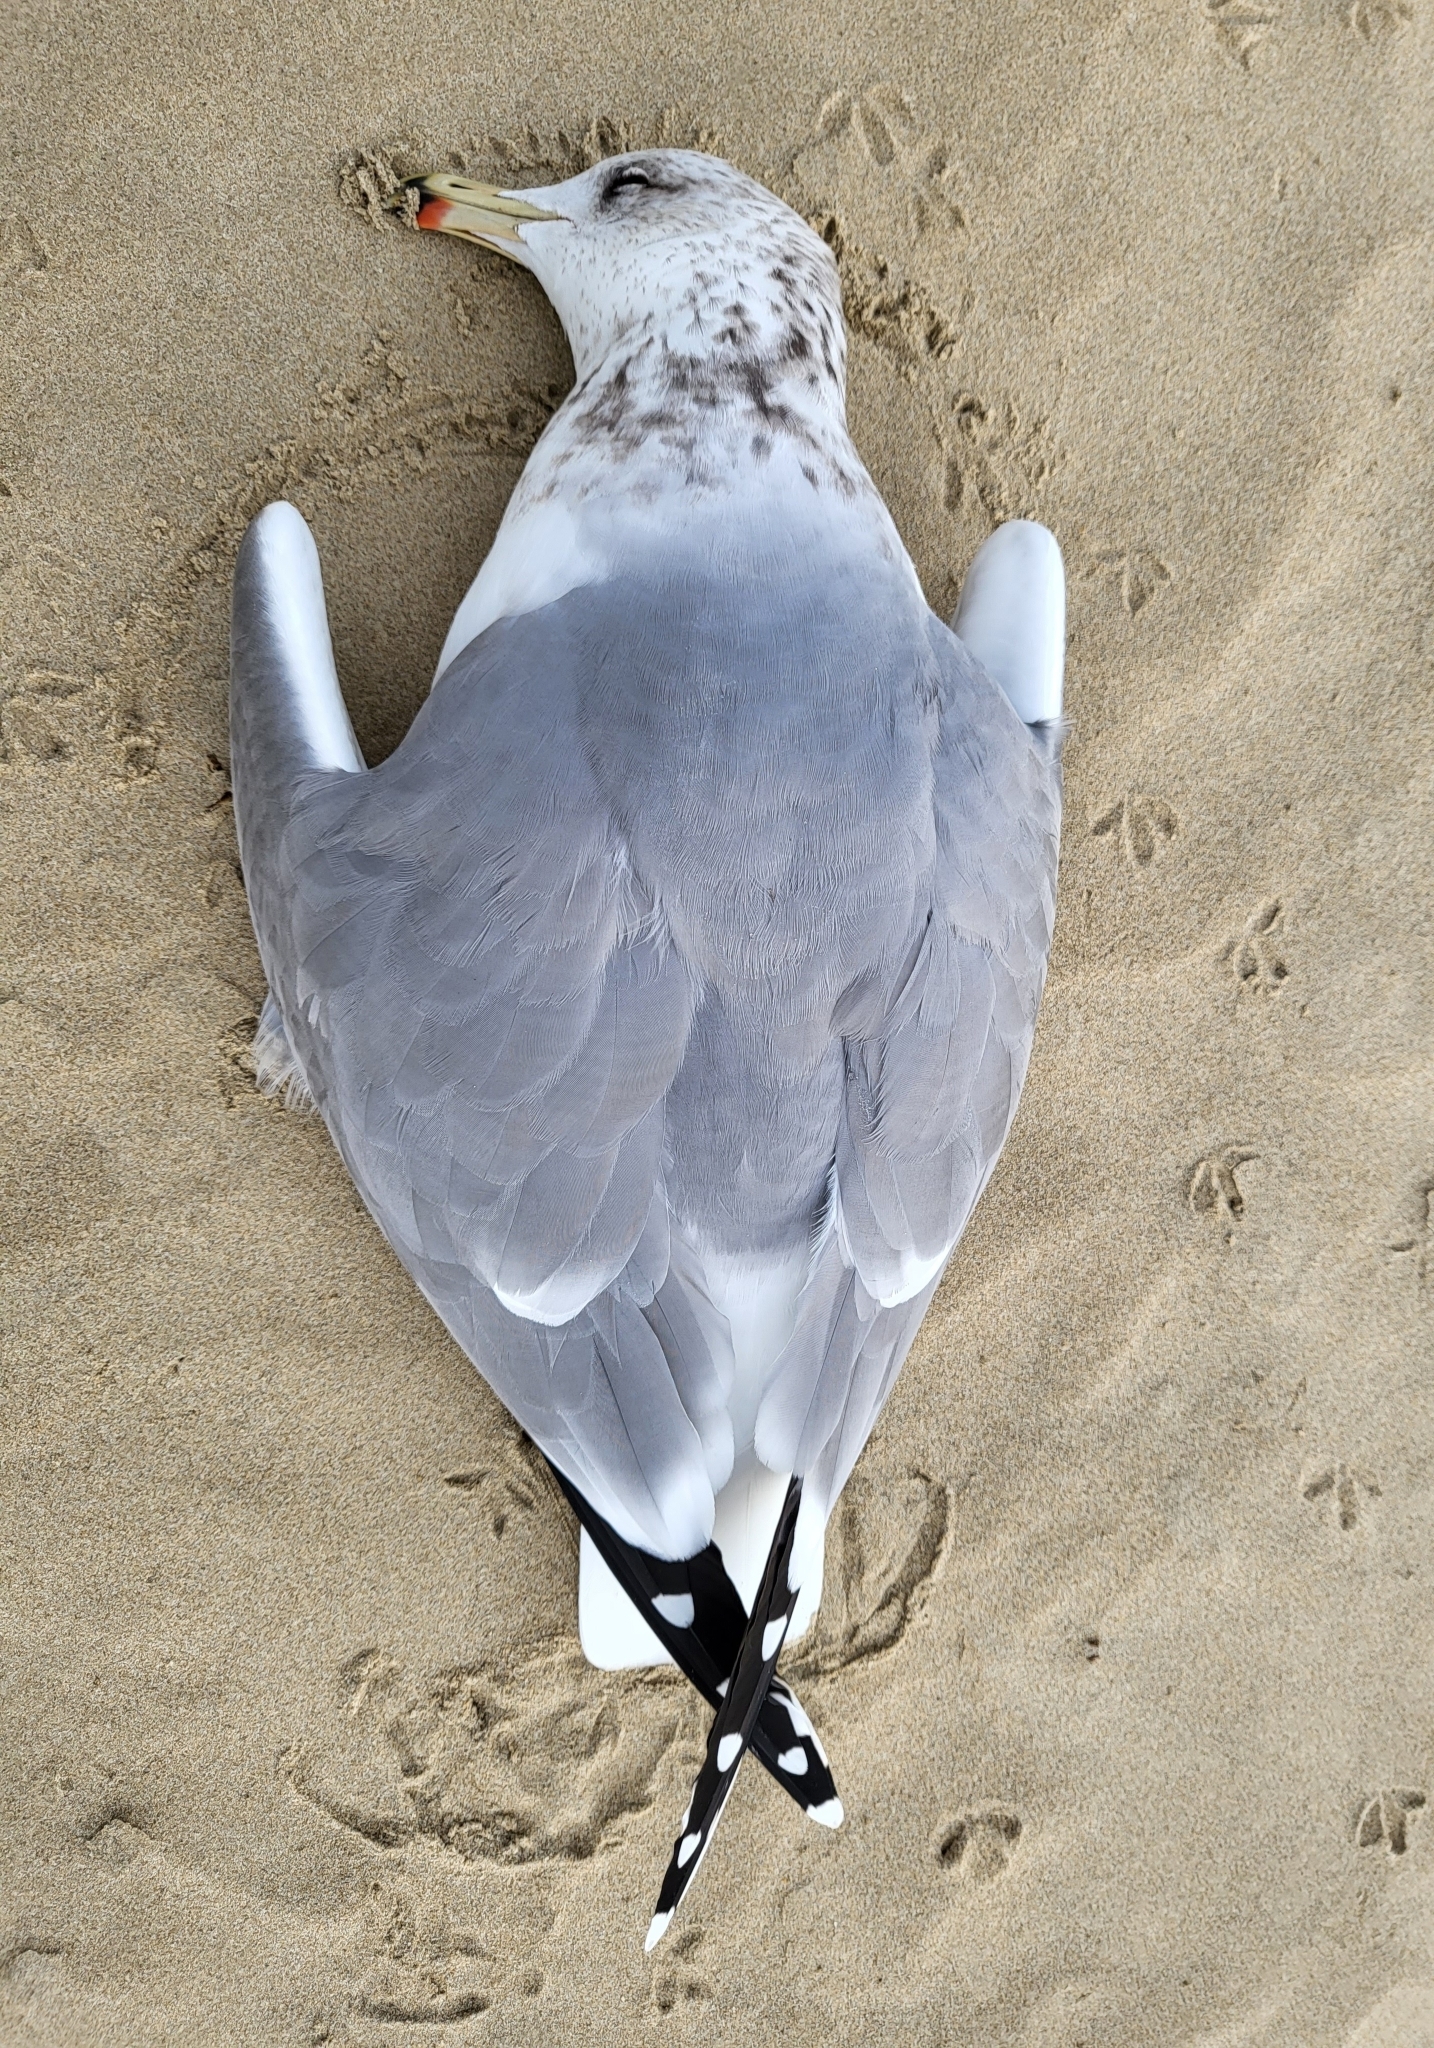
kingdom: Animalia
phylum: Chordata
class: Aves
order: Charadriiformes
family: Laridae
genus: Larus
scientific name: Larus californicus
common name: California gull
